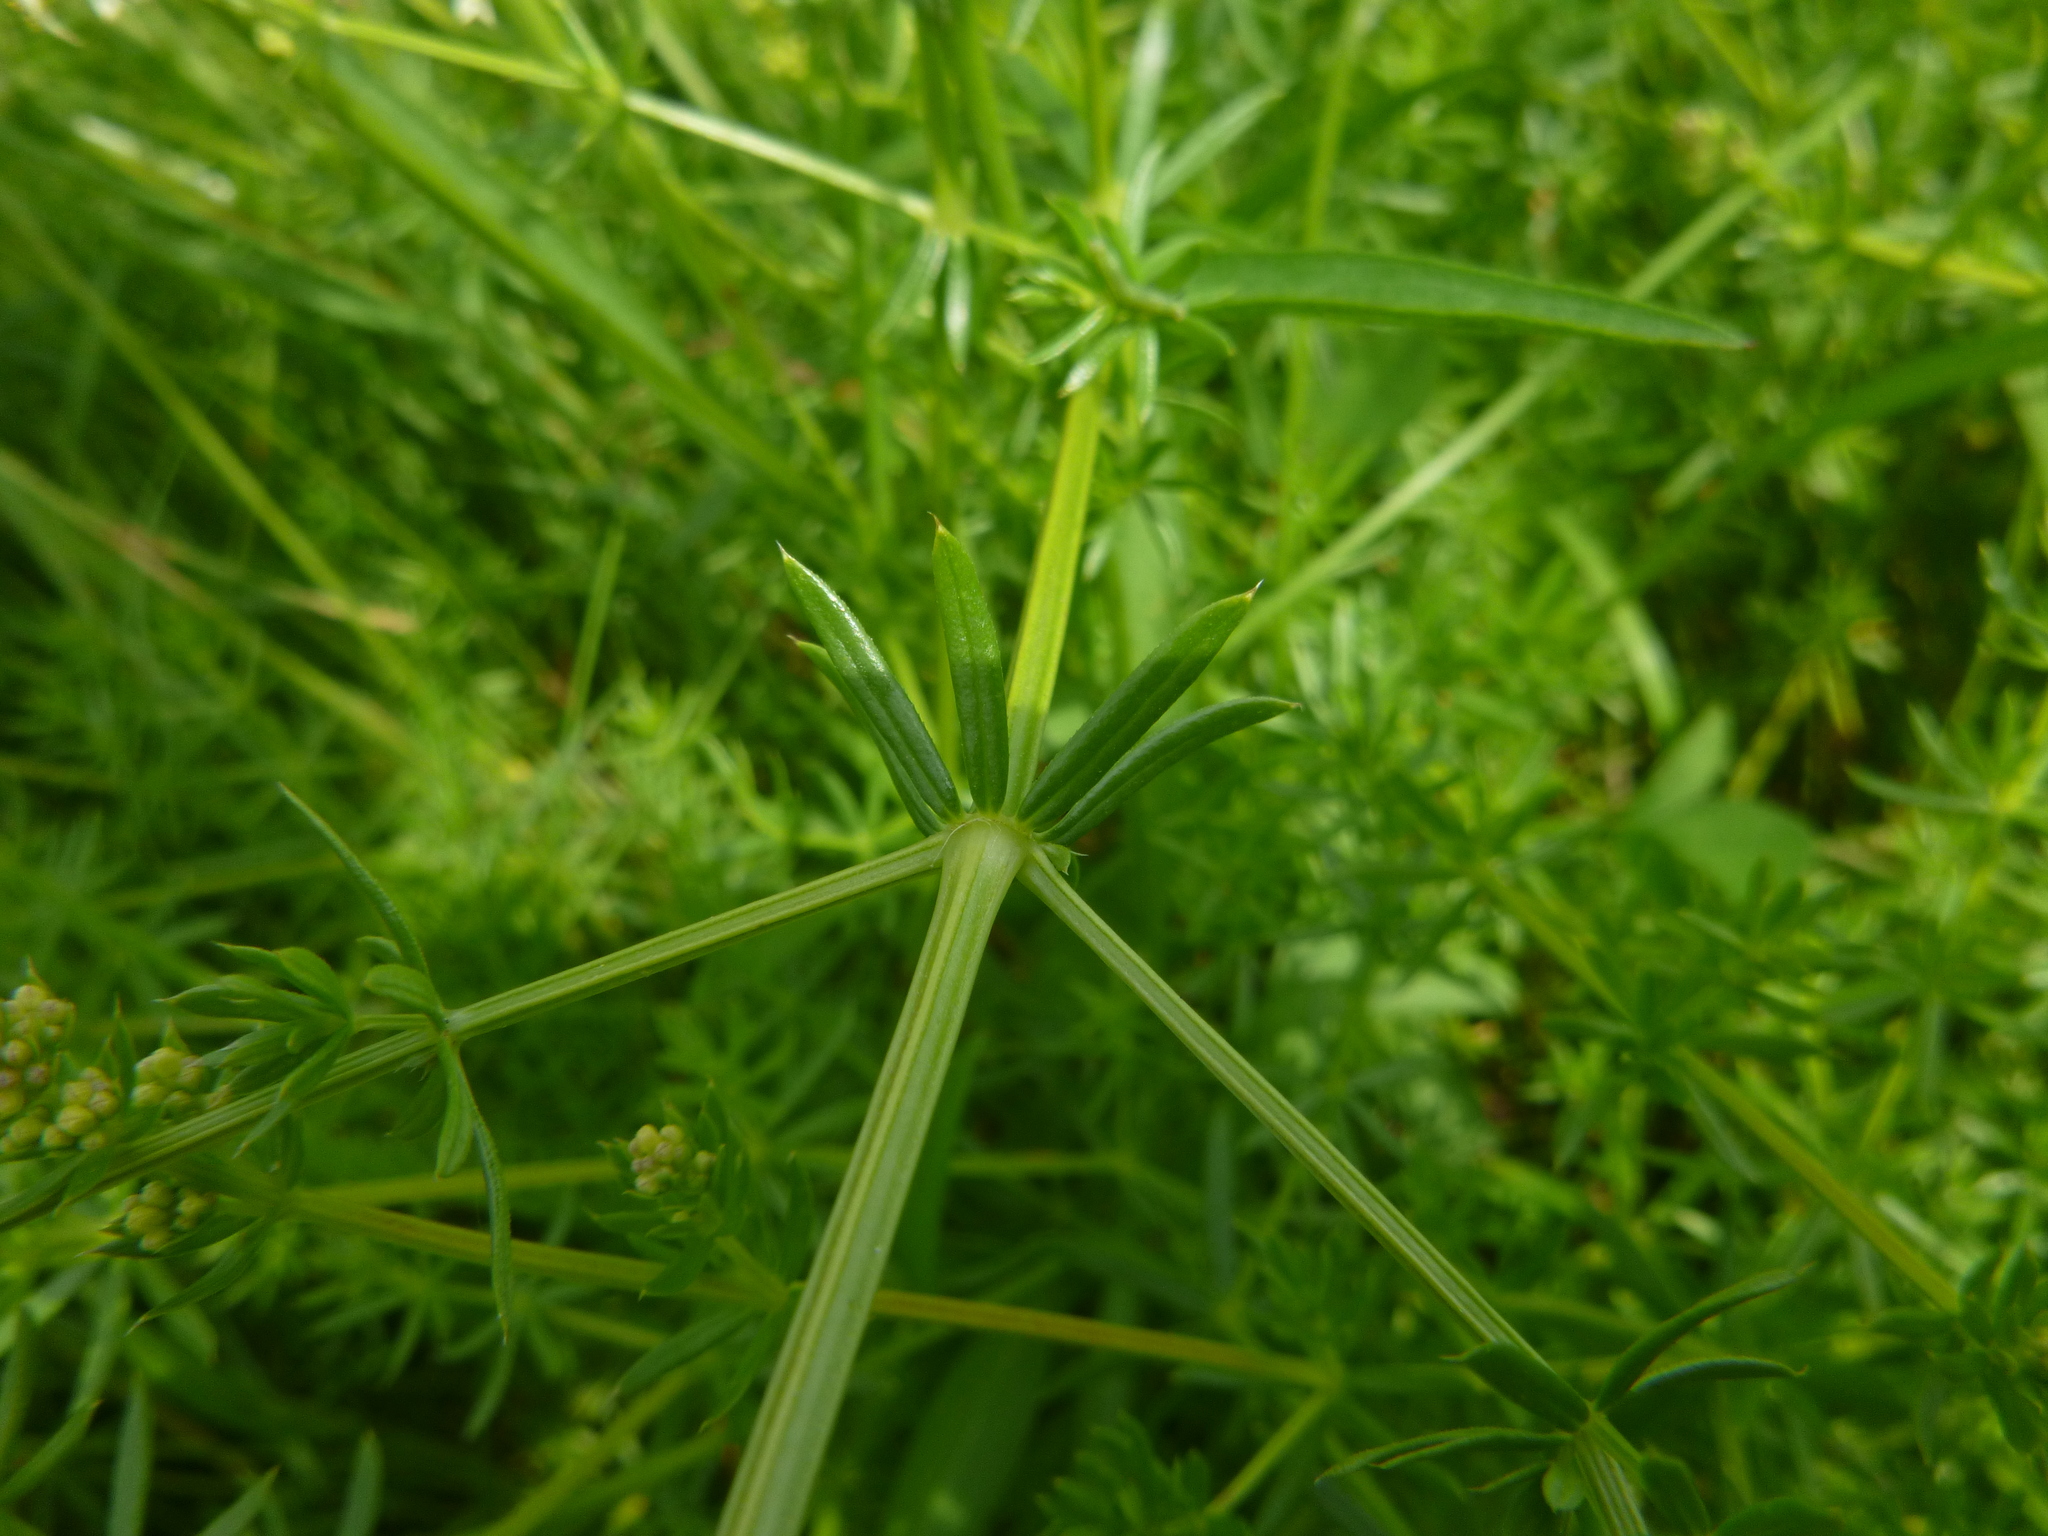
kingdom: Plantae
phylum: Tracheophyta
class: Magnoliopsida
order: Gentianales
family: Rubiaceae
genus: Galium
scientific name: Galium album
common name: White bedstraw
